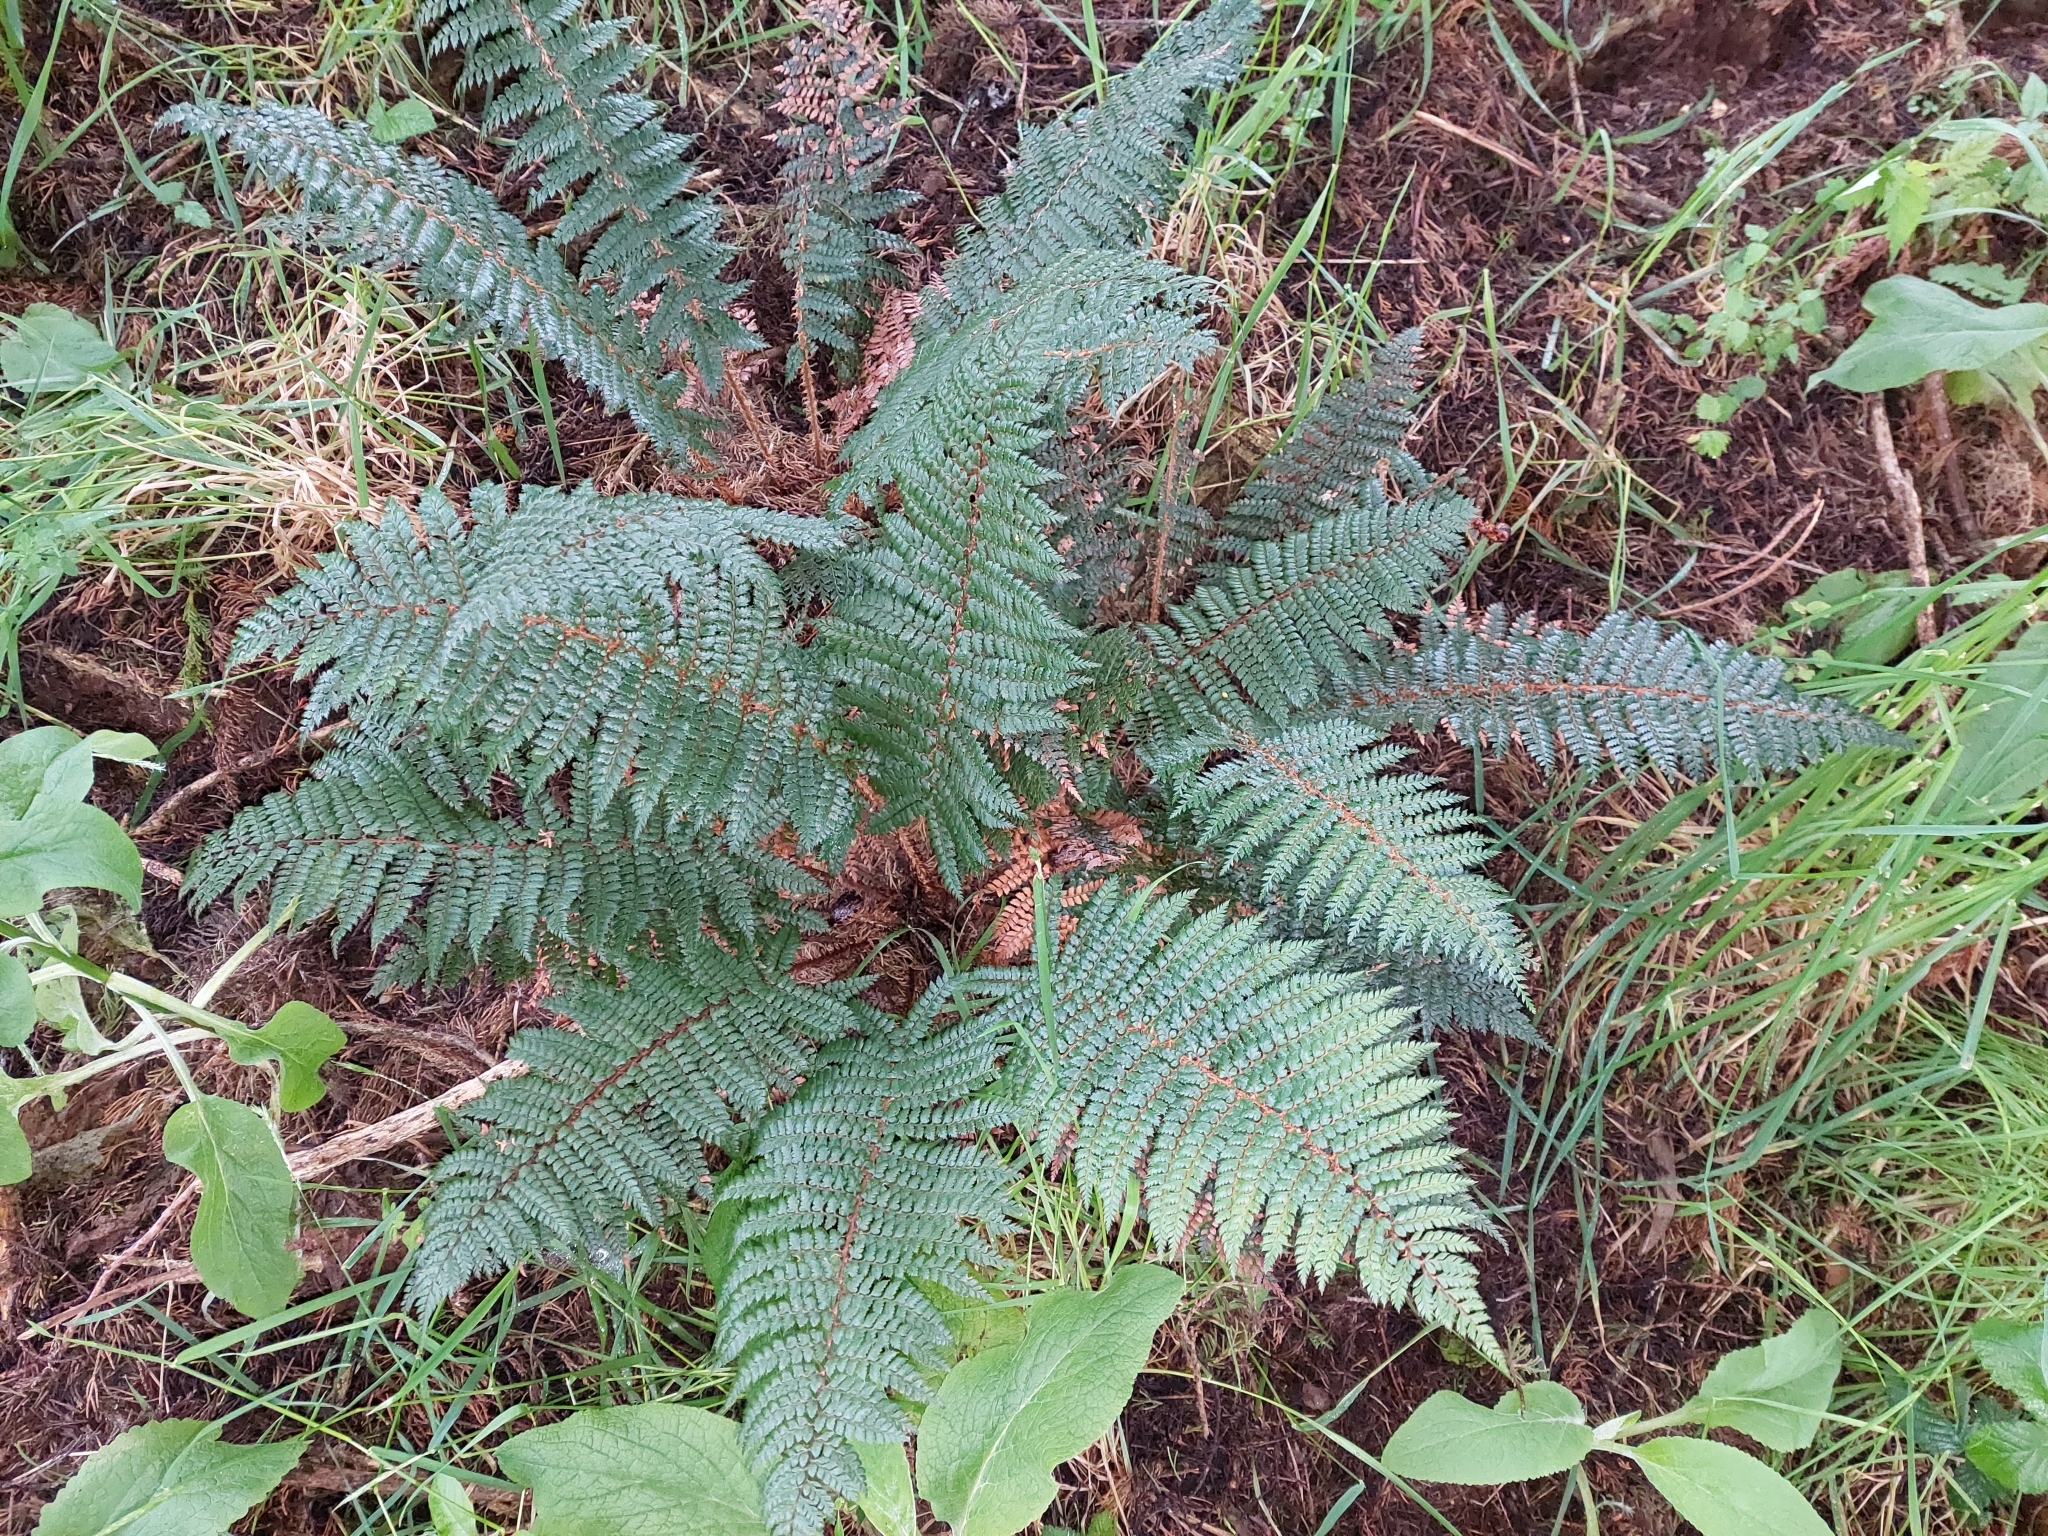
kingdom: Plantae
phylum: Tracheophyta
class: Polypodiopsida
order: Polypodiales
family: Dryopteridaceae
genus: Polystichum
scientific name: Polystichum vestitum
